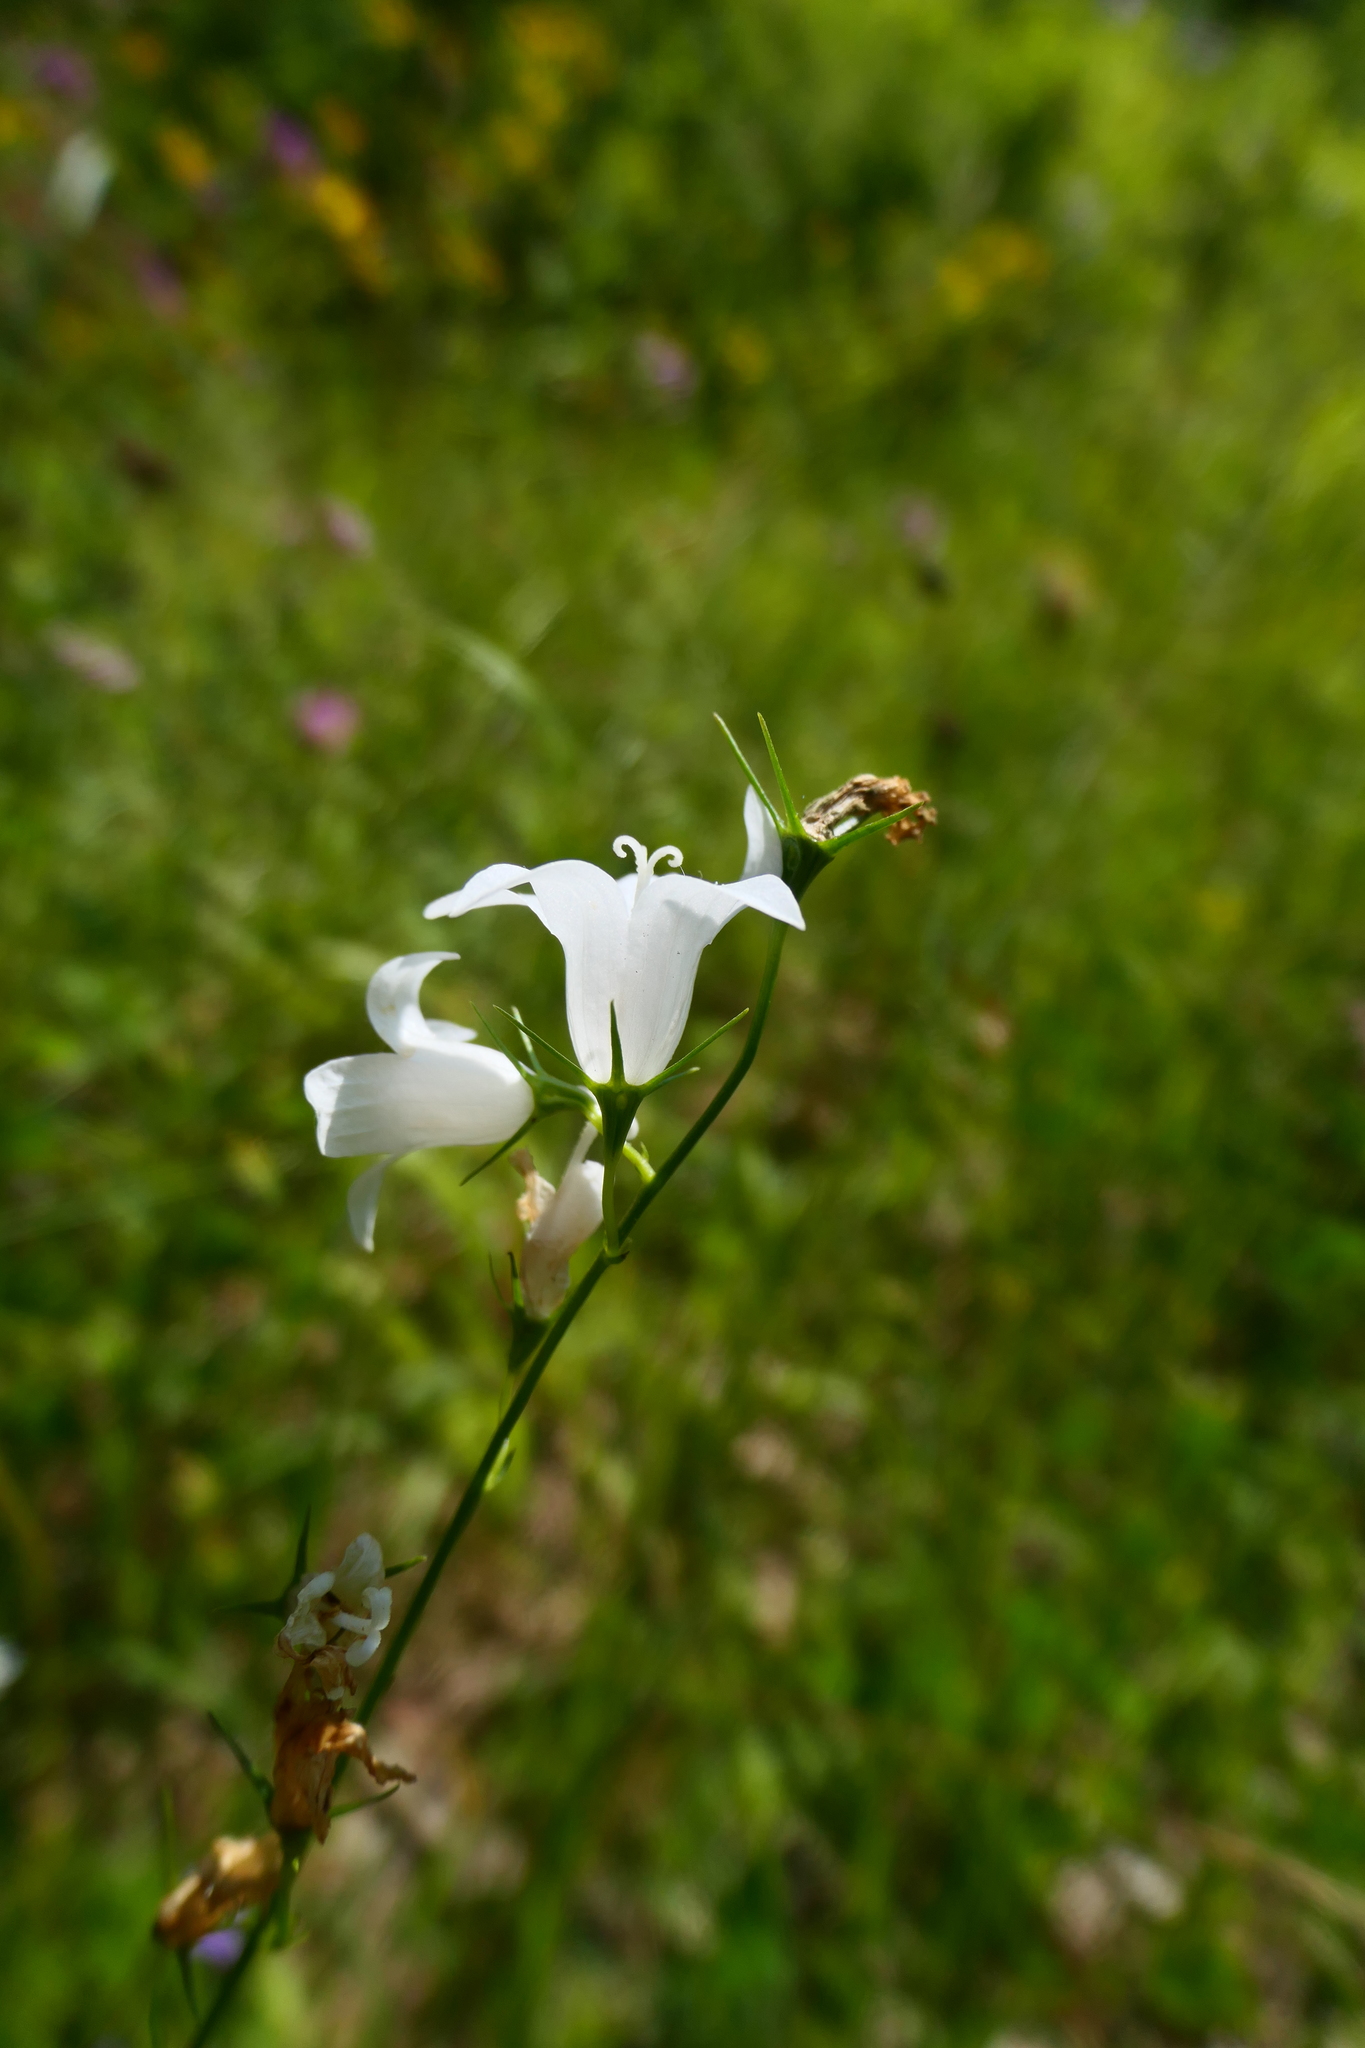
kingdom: Plantae
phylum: Tracheophyta
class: Magnoliopsida
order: Asterales
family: Campanulaceae
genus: Campanula
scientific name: Campanula rapunculus
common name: Rampion bellflower
